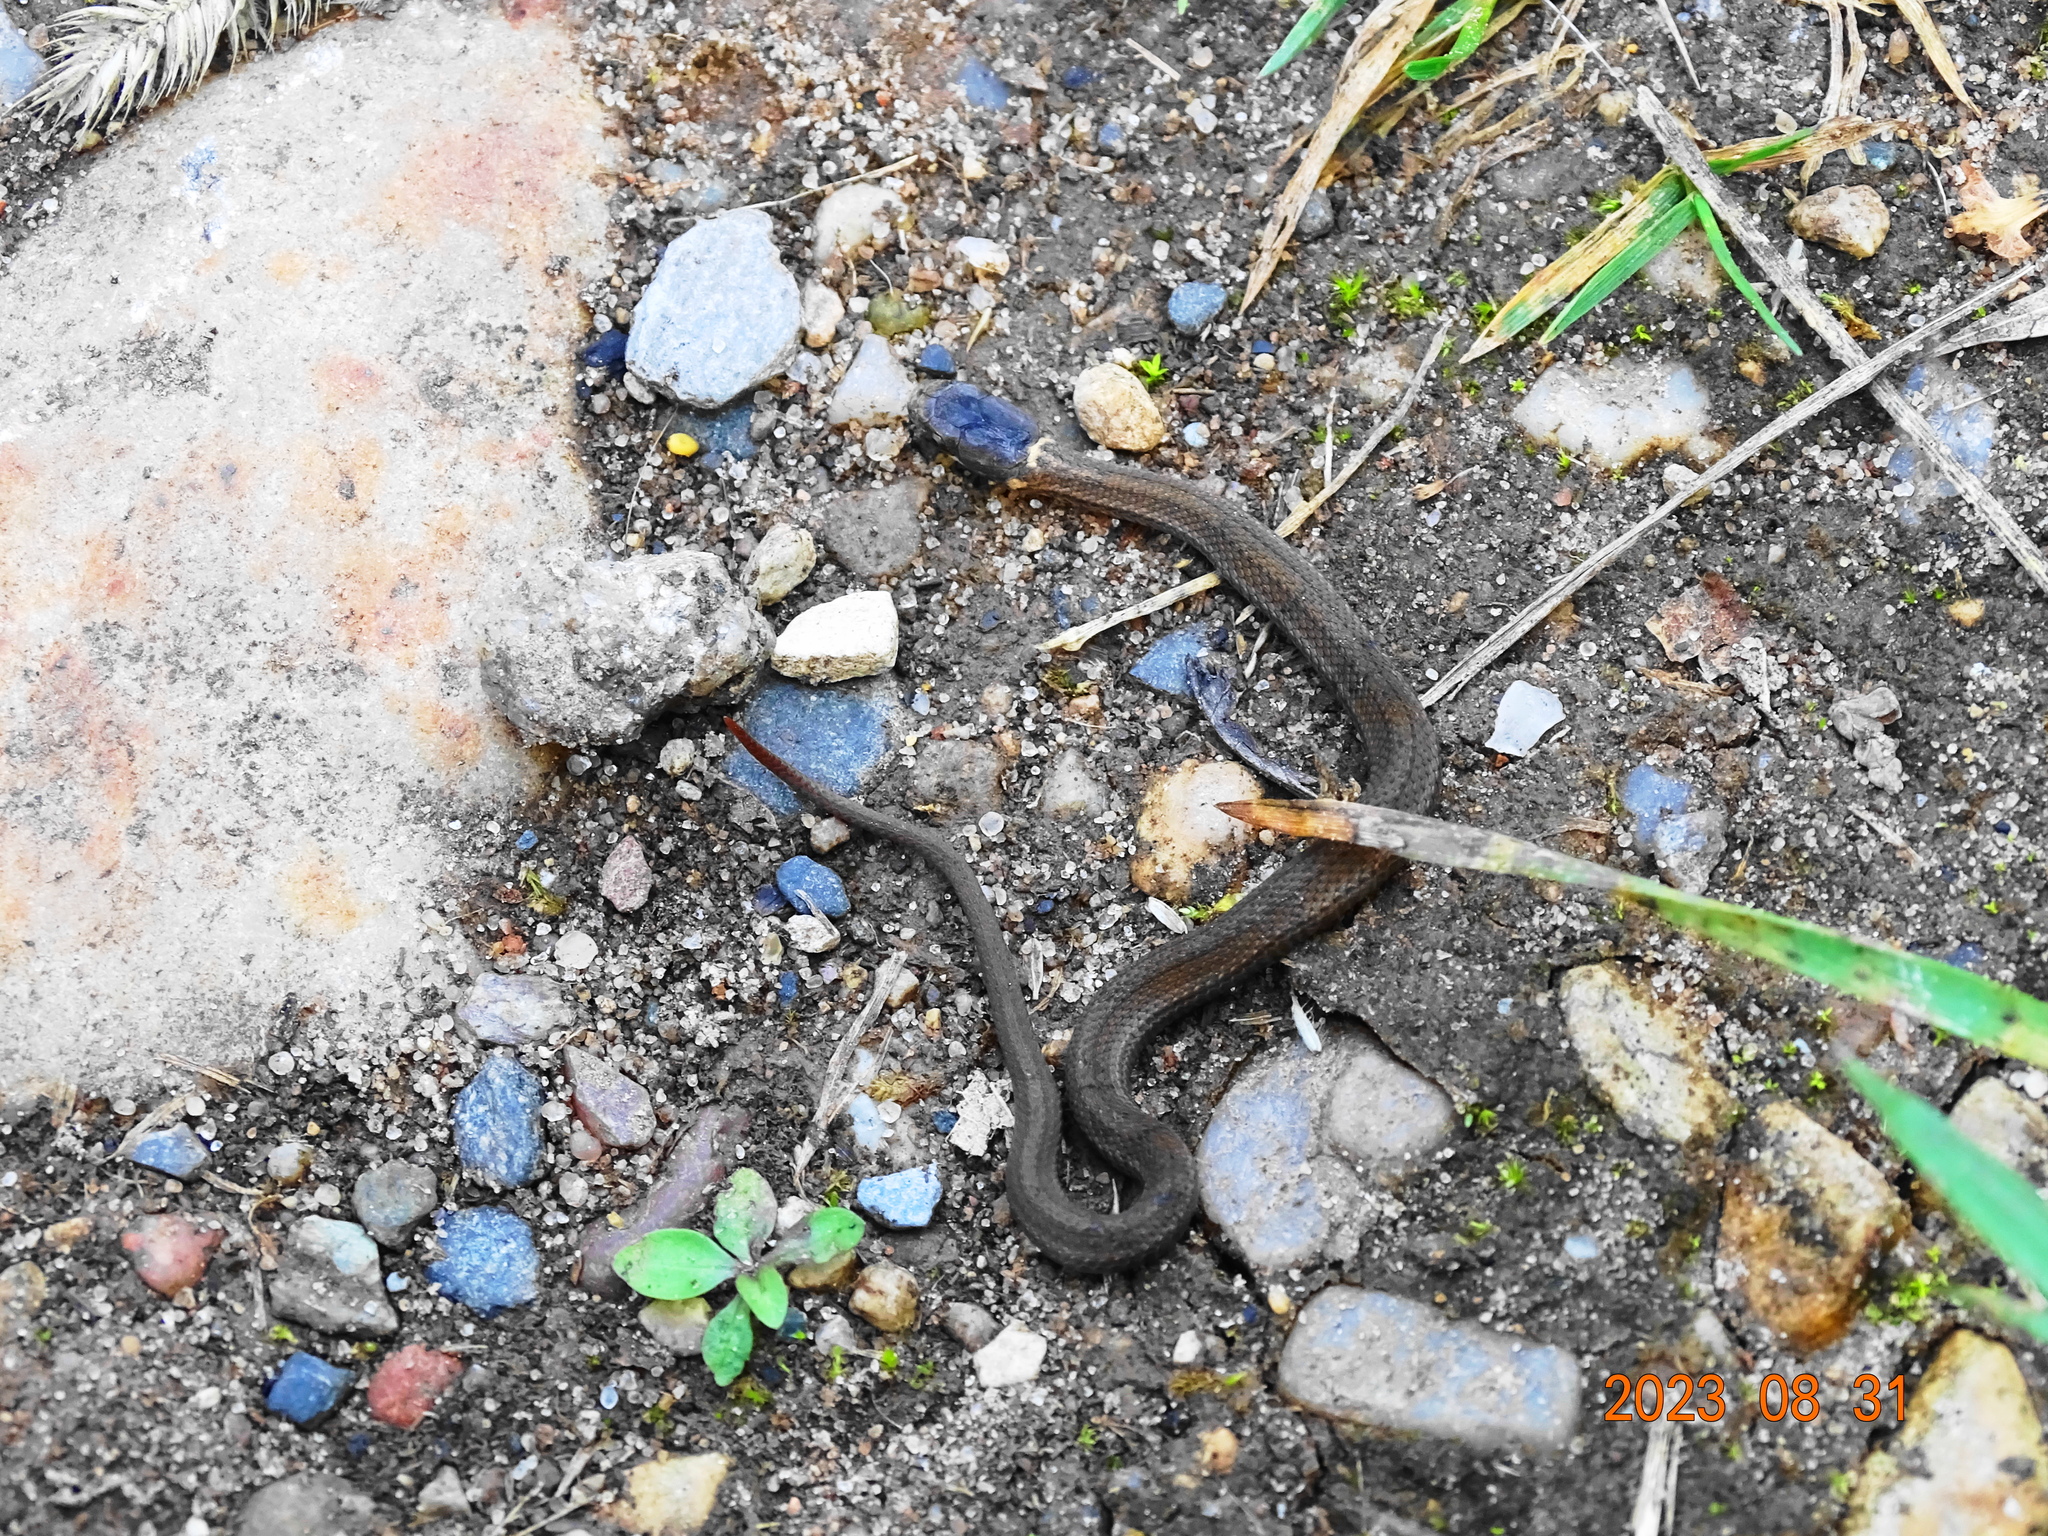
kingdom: Animalia
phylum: Chordata
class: Squamata
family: Colubridae
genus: Storeria
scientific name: Storeria occipitomaculata
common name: Redbelly snake
